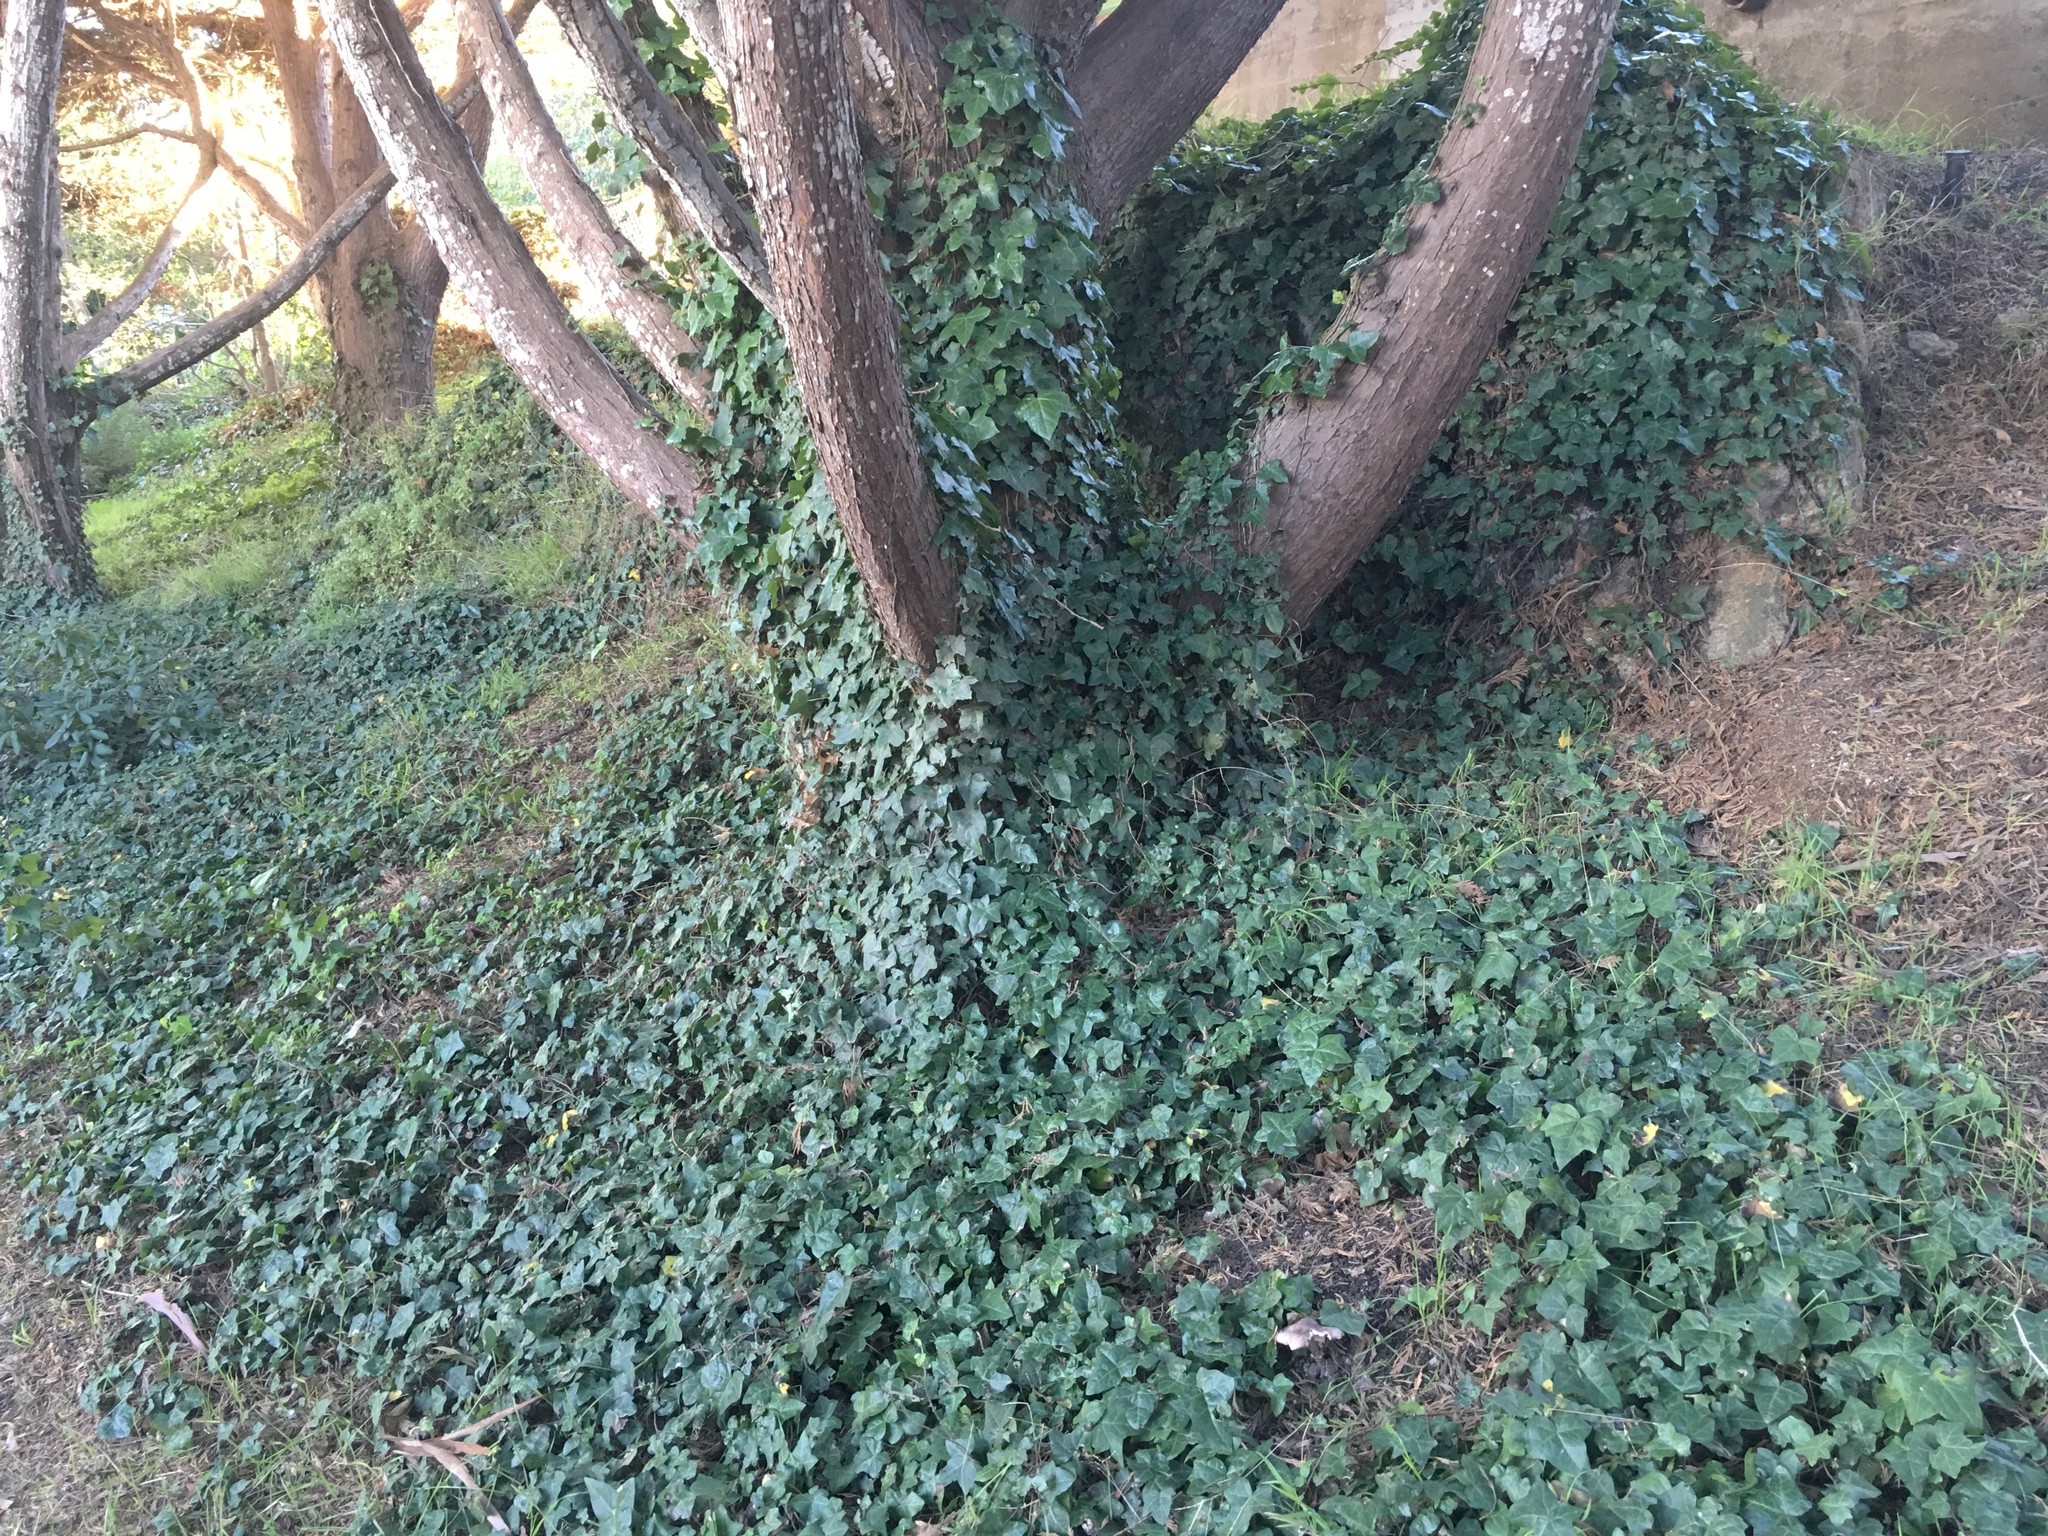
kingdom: Plantae
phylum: Tracheophyta
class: Magnoliopsida
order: Apiales
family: Araliaceae
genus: Hedera
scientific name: Hedera helix
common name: Ivy
